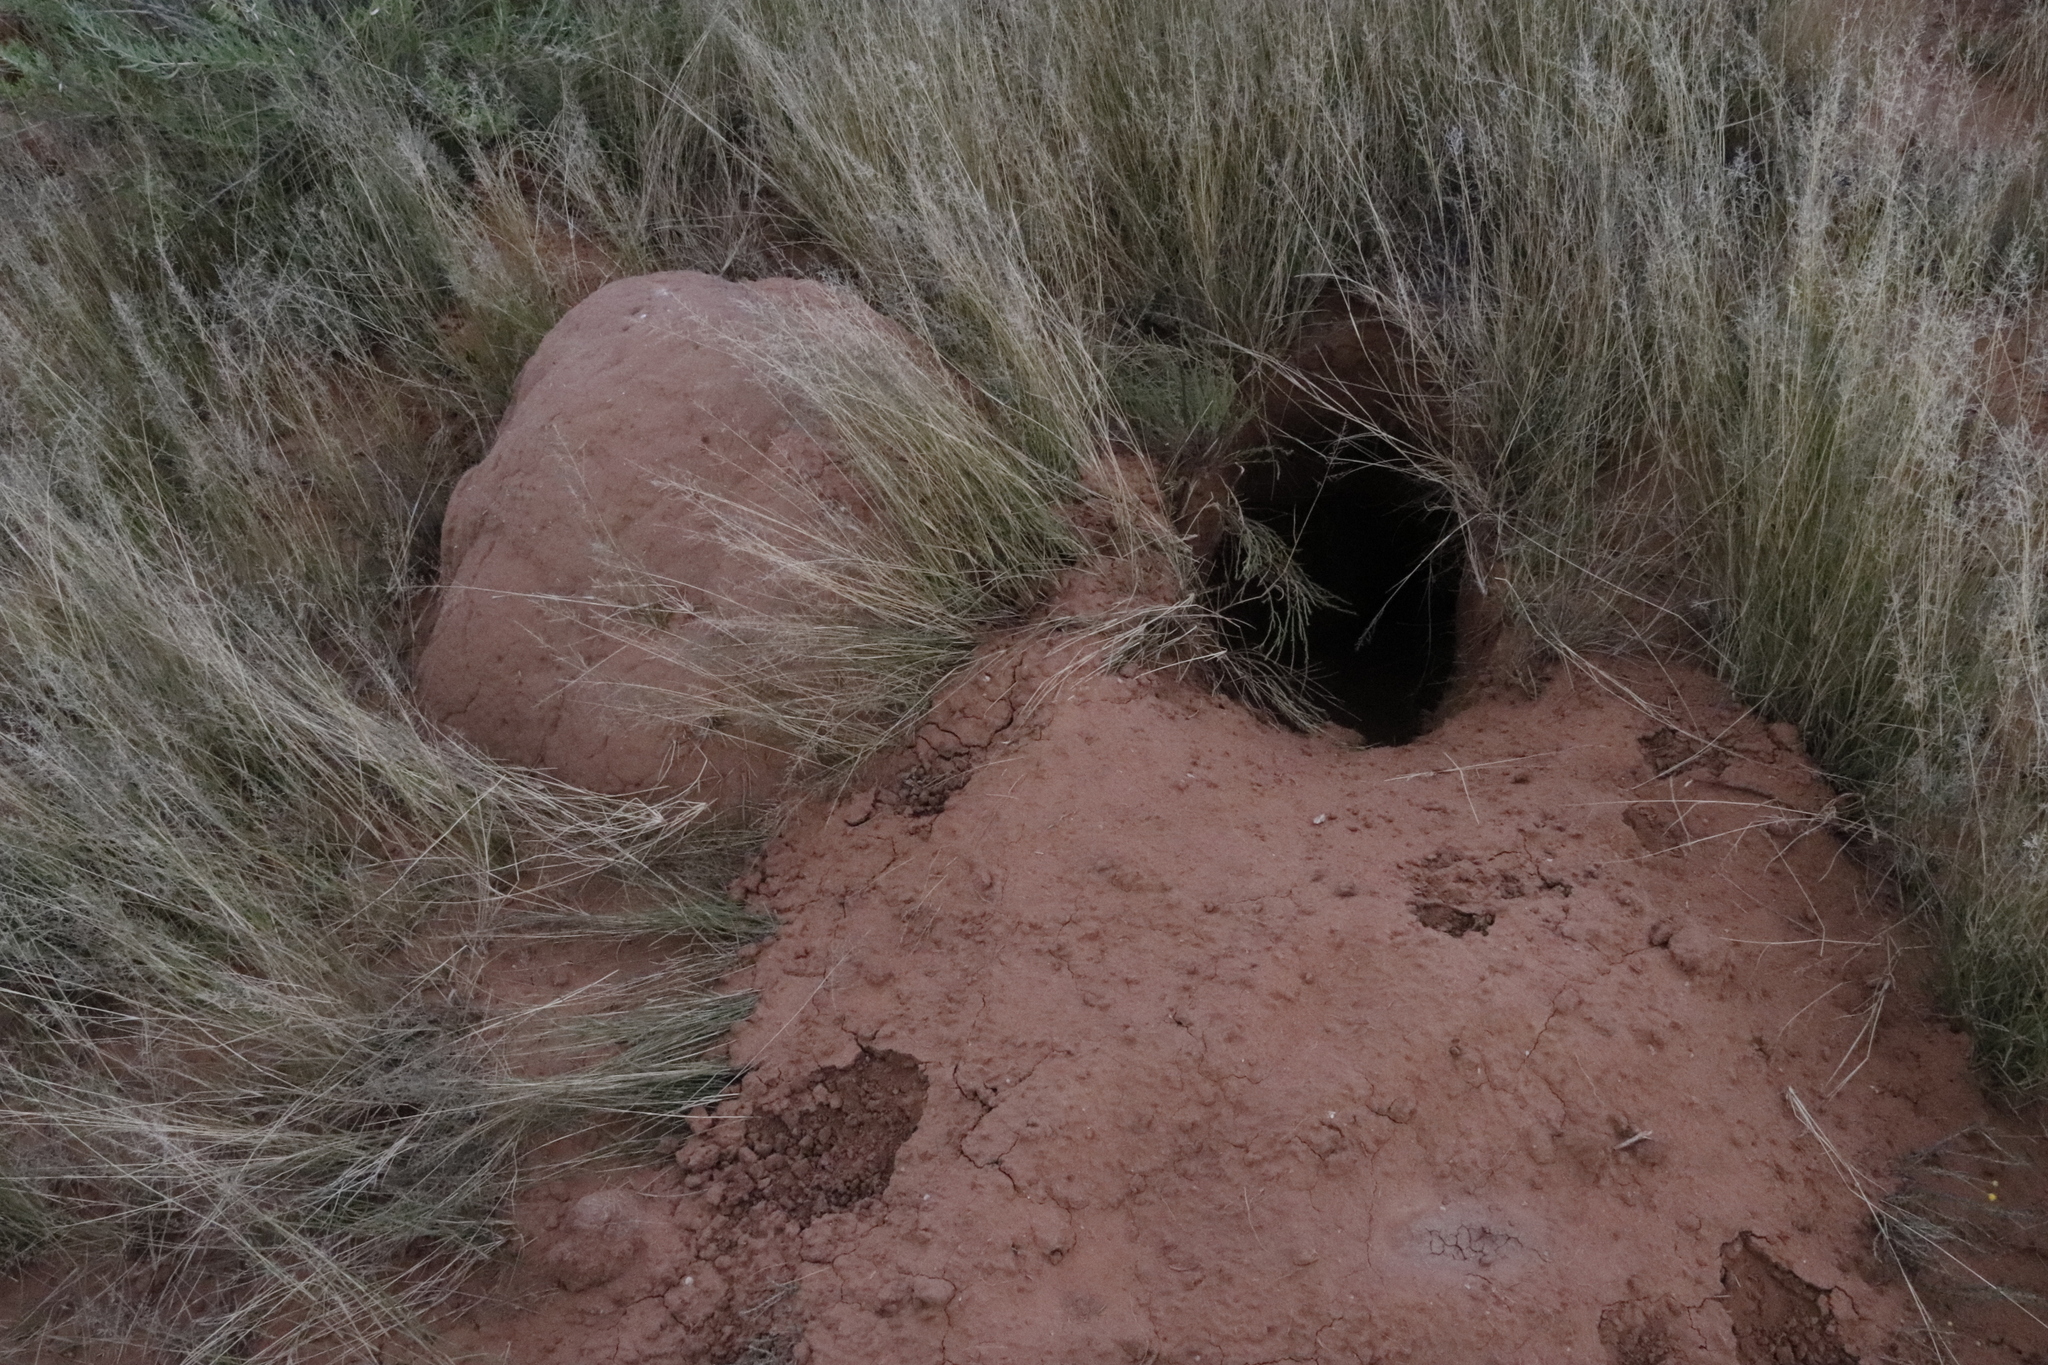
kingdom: Animalia
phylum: Chordata
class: Mammalia
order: Tubulidentata
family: Orycteropodidae
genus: Orycteropus
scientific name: Orycteropus afer
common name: Aardvark
